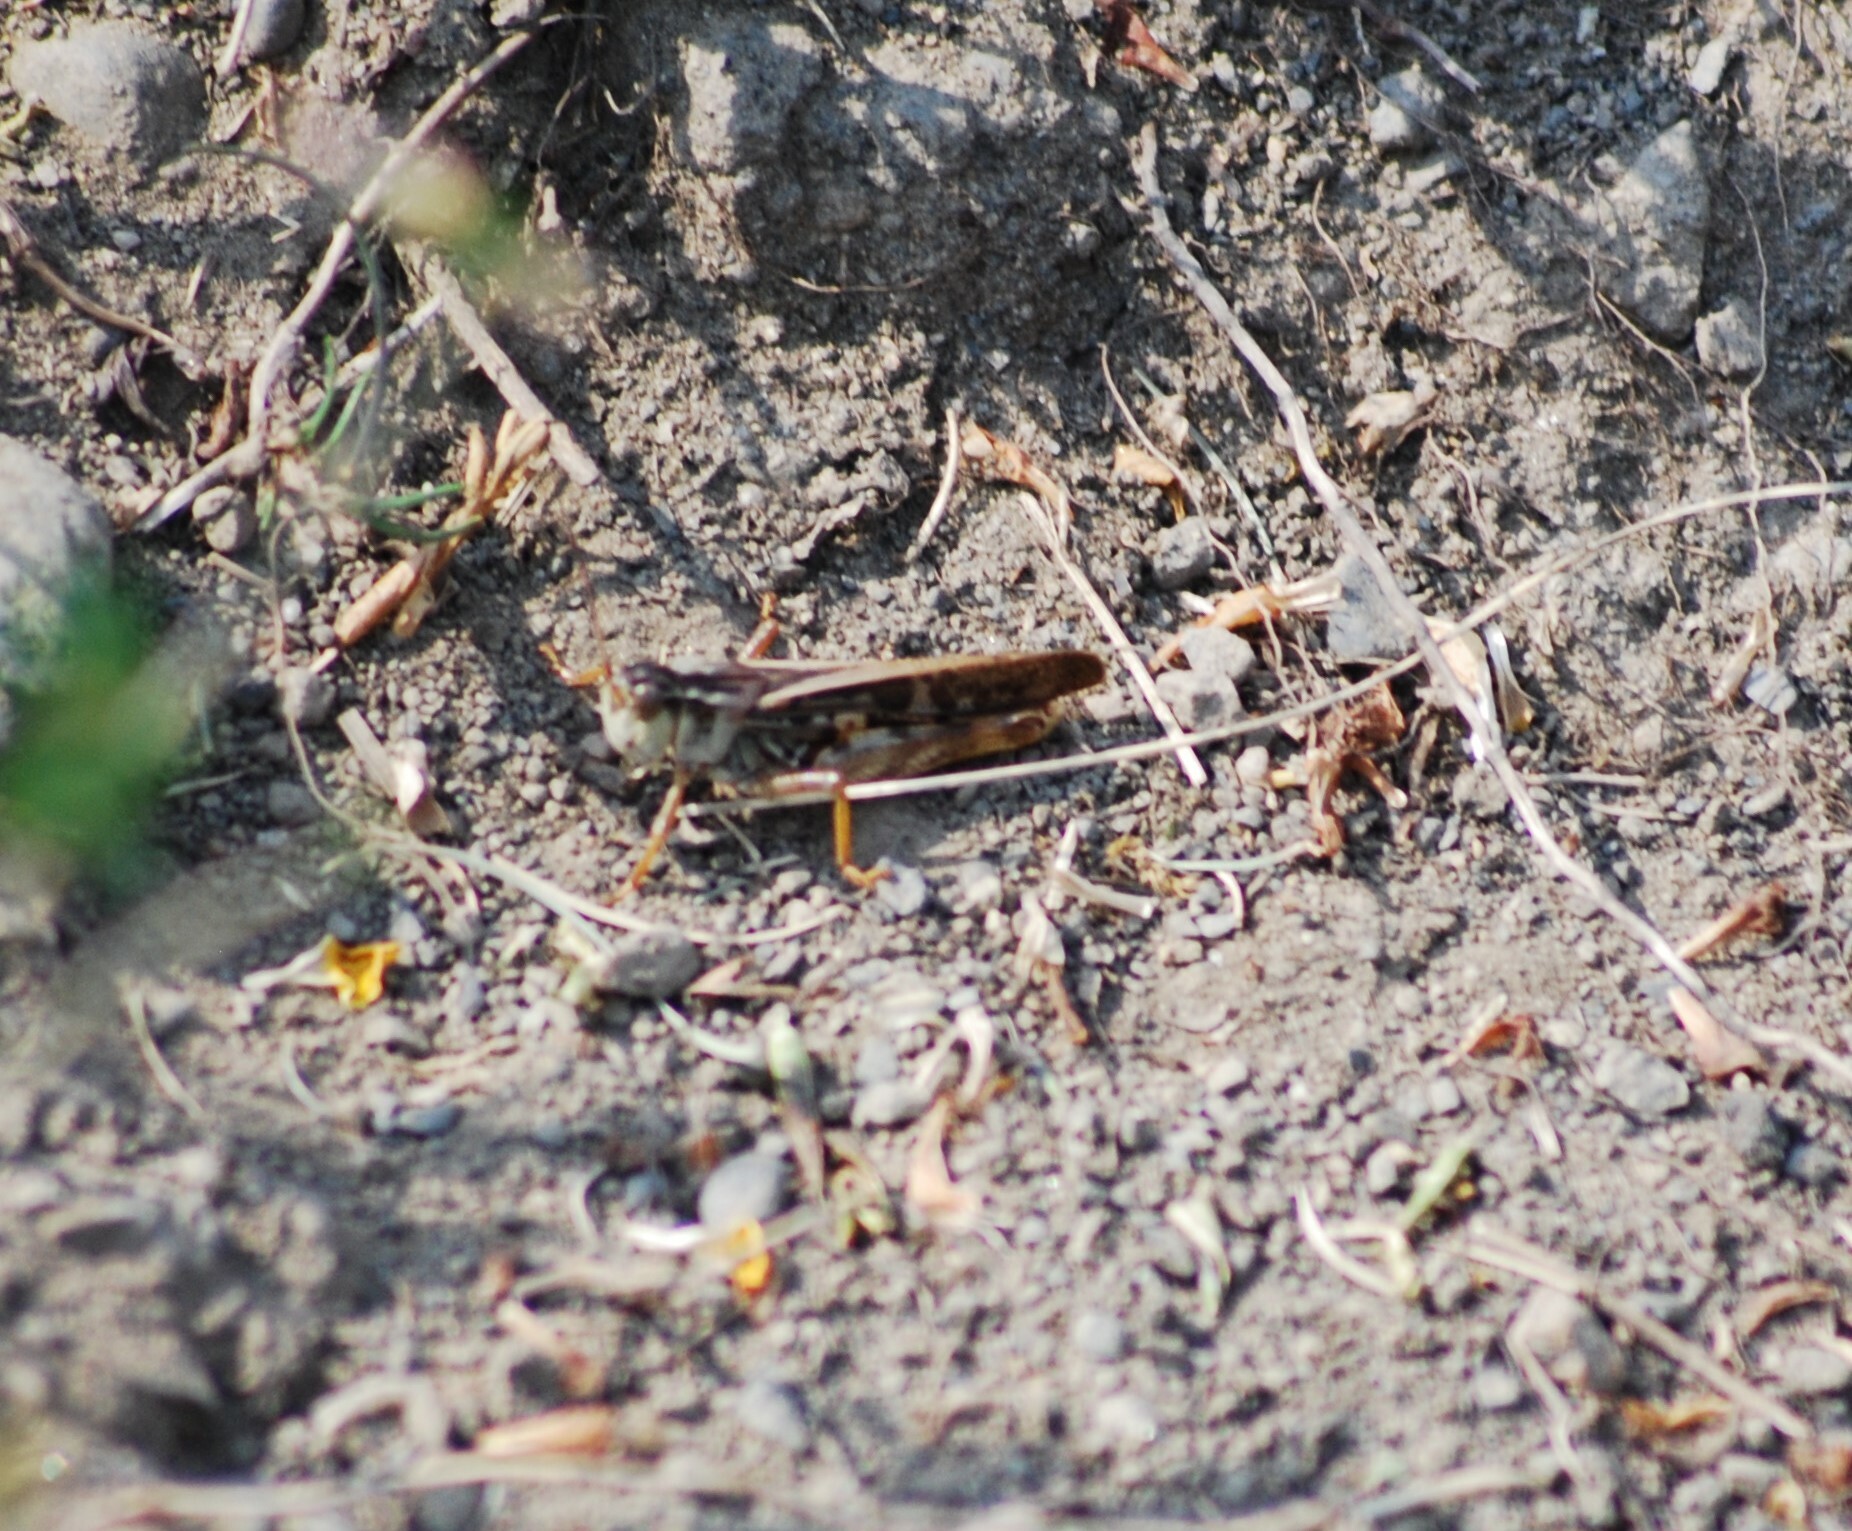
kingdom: Animalia
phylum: Arthropoda
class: Insecta
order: Orthoptera
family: Acrididae
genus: Camnula
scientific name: Camnula pellucida
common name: Clear-winged grasshopper
